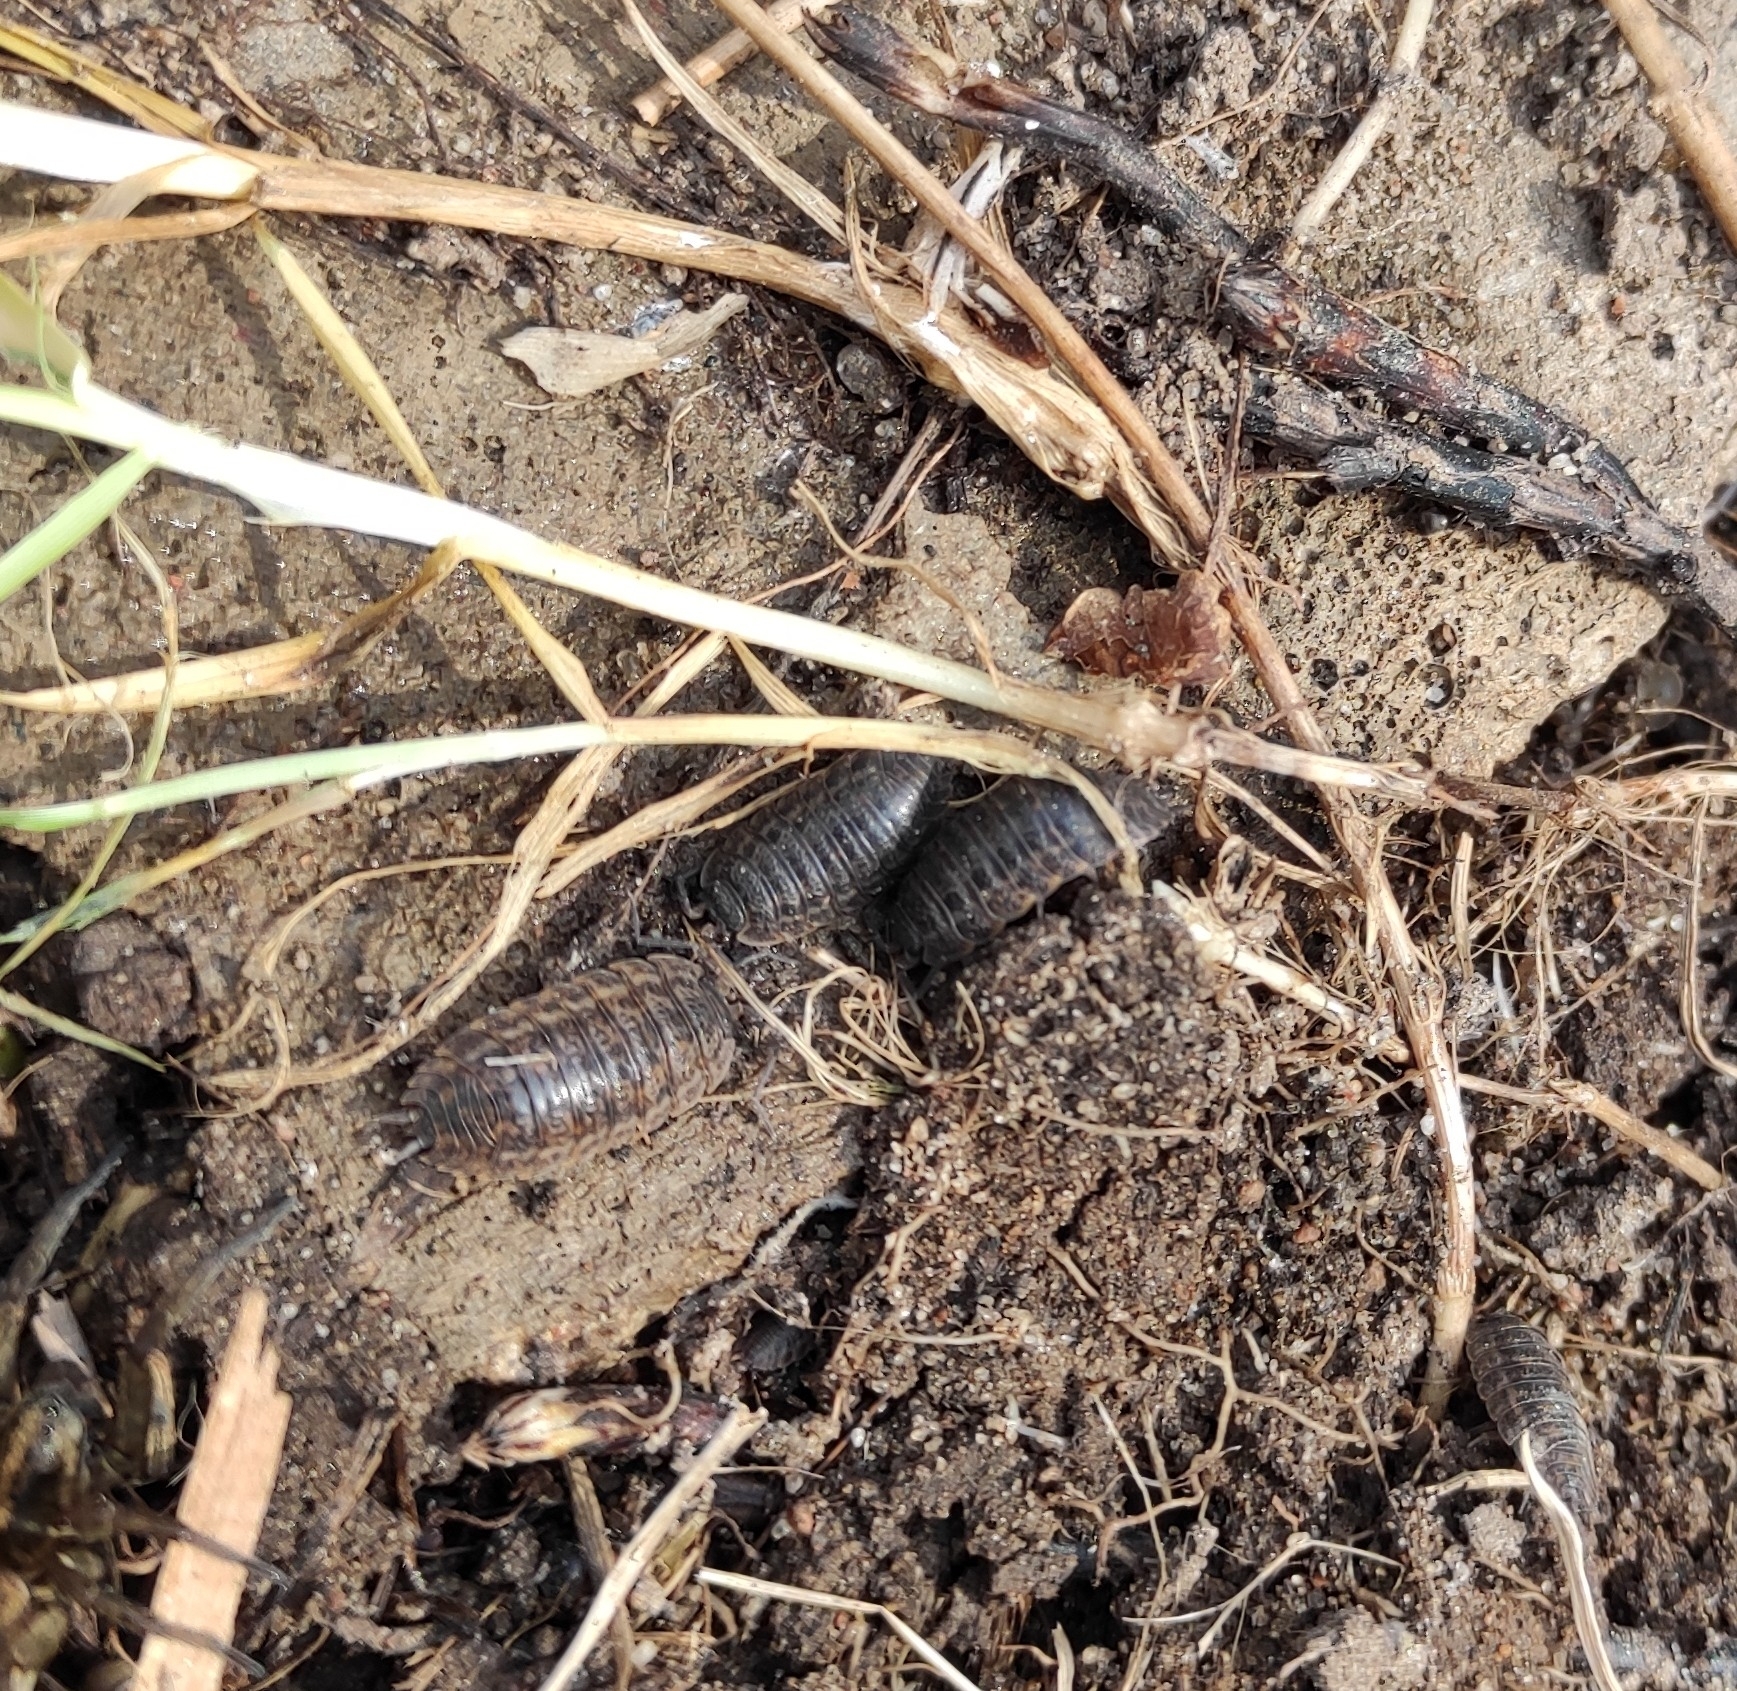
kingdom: Animalia
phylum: Arthropoda
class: Malacostraca
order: Isopoda
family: Trachelipodidae
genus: Trachelipus
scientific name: Trachelipus rathkii
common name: Isopod
